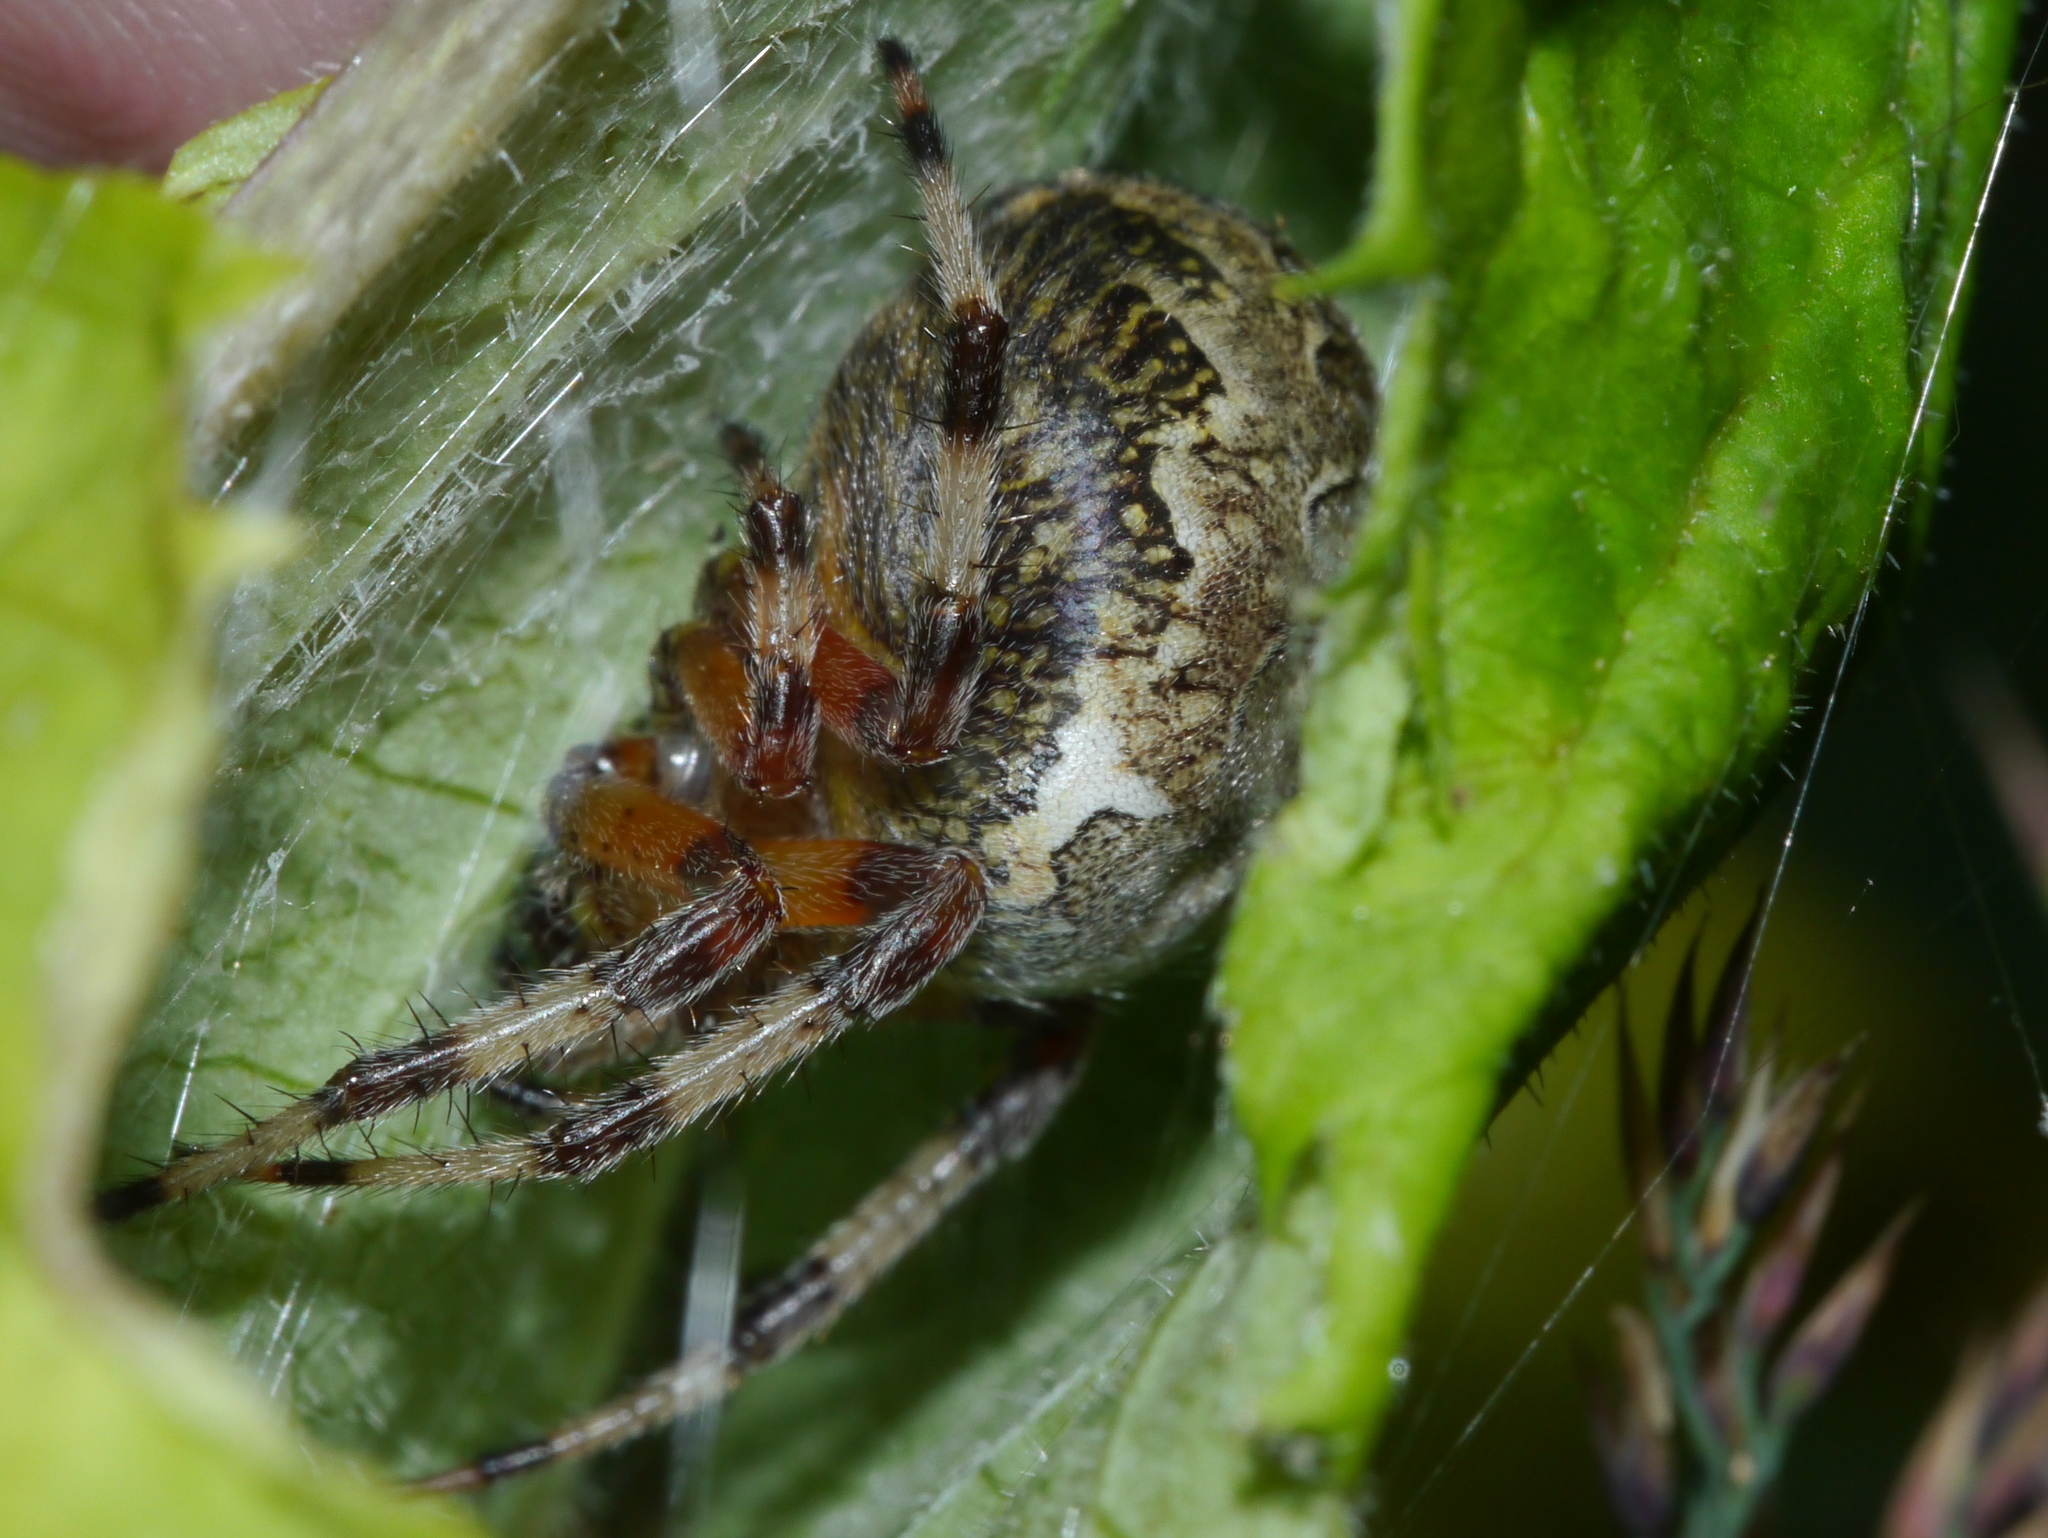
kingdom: Animalia
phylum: Arthropoda
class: Arachnida
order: Araneae
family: Araneidae
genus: Araneus
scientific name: Araneus marmoreus
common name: Marbled orbweaver
